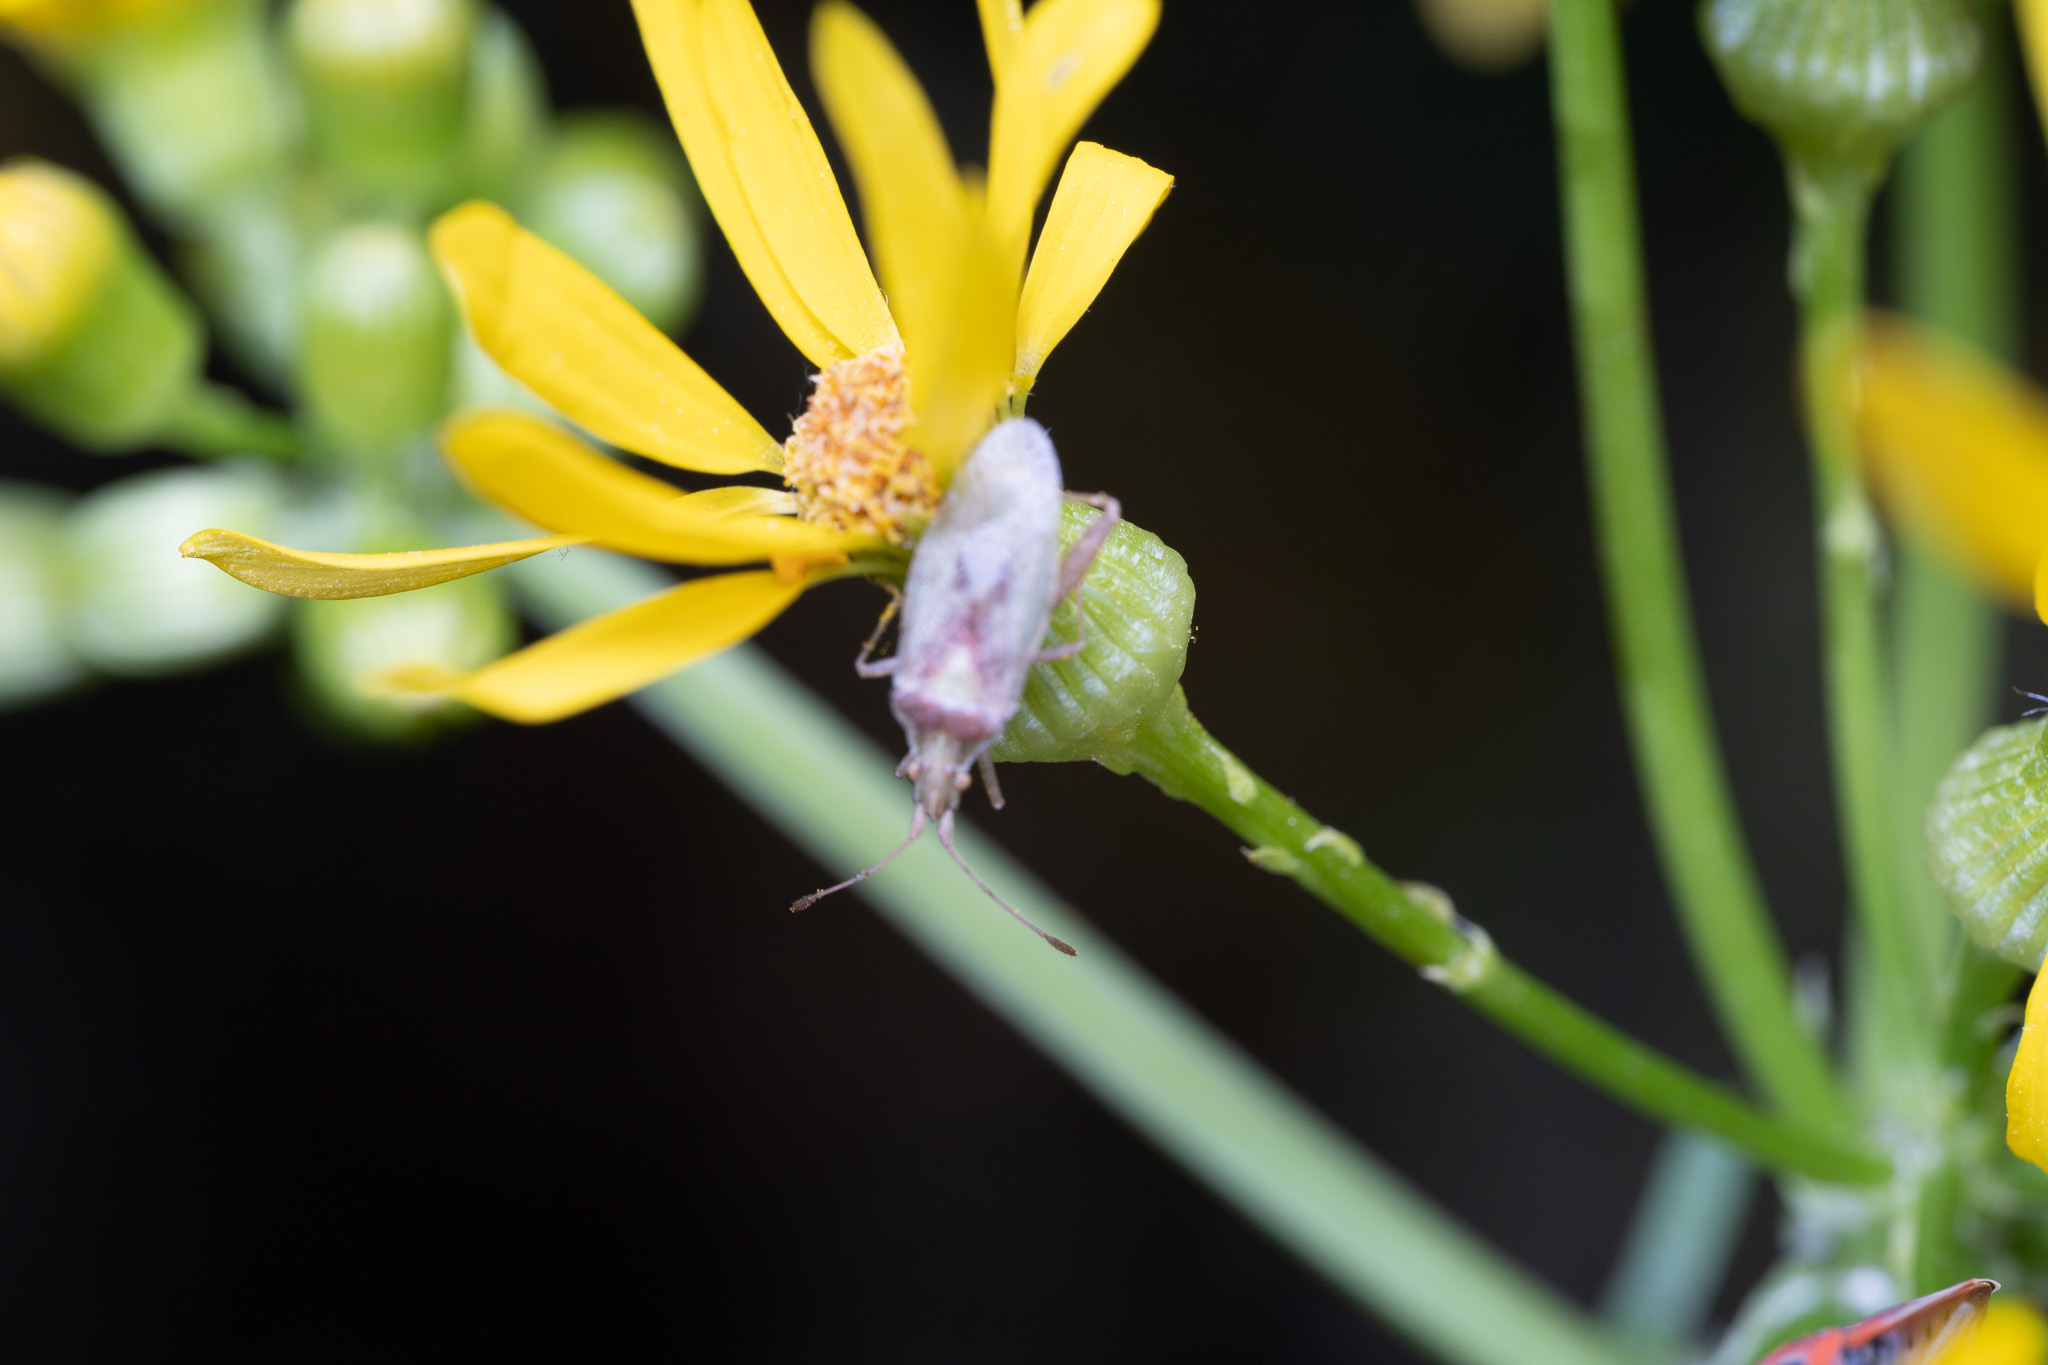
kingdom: Animalia
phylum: Arthropoda
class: Insecta
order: Hemiptera
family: Rhopalidae
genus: Harmostes
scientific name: Harmostes reflexulus
